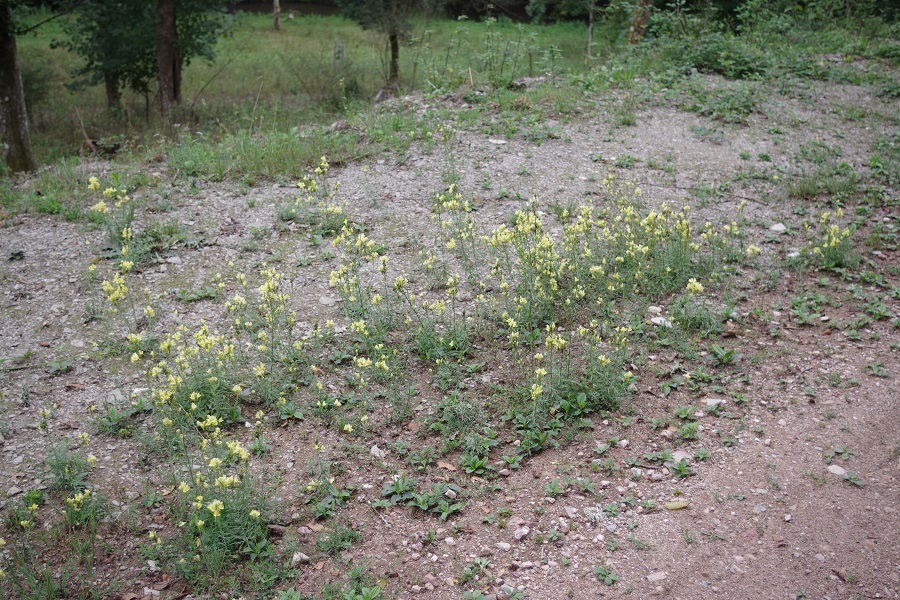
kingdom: Plantae
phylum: Tracheophyta
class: Magnoliopsida
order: Lamiales
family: Plantaginaceae
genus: Linaria
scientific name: Linaria vulgaris
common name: Butter and eggs
